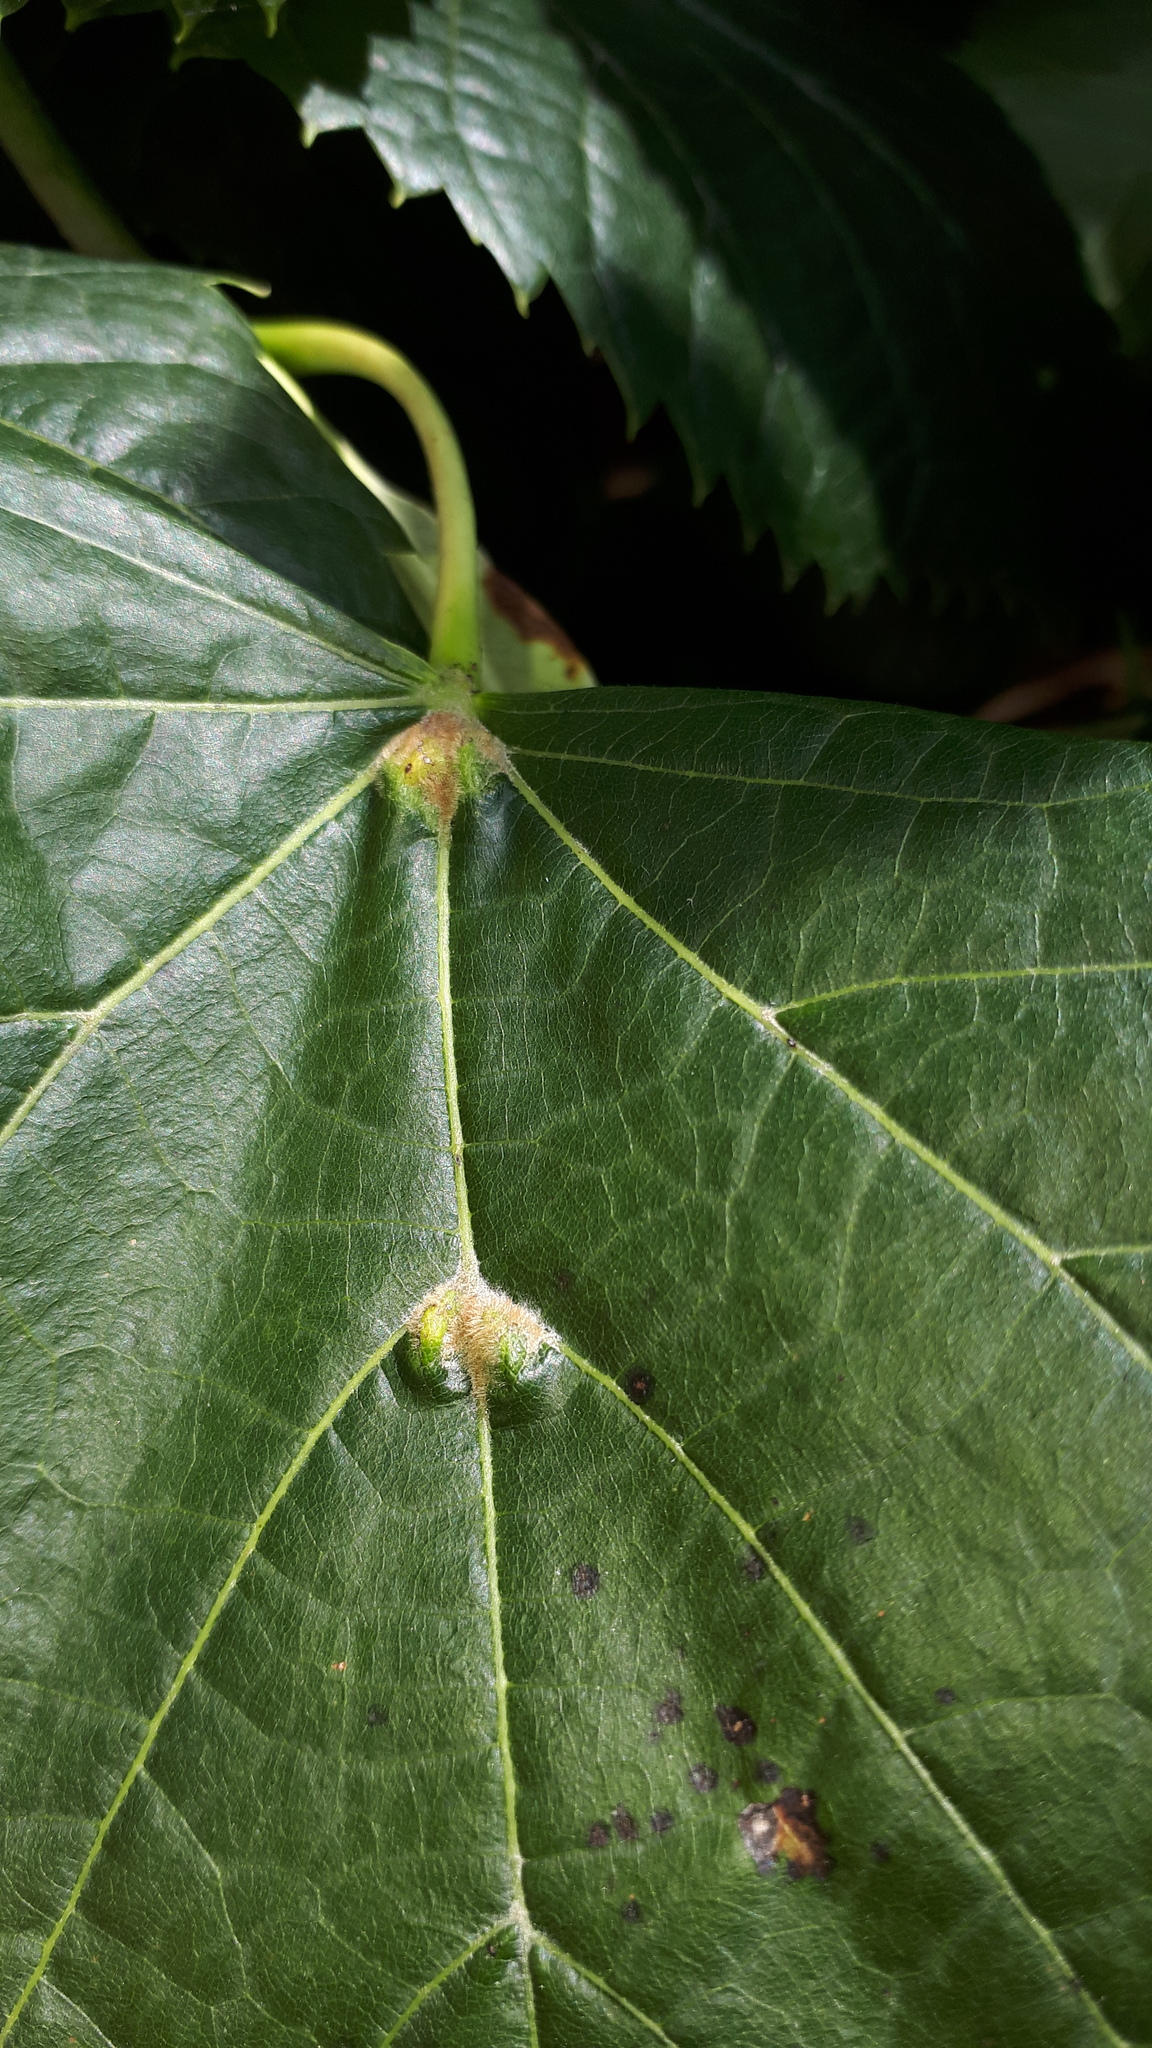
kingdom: Animalia
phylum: Arthropoda
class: Arachnida
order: Trombidiformes
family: Eriophyidae
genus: Eriophyes
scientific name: Eriophyes exilis
